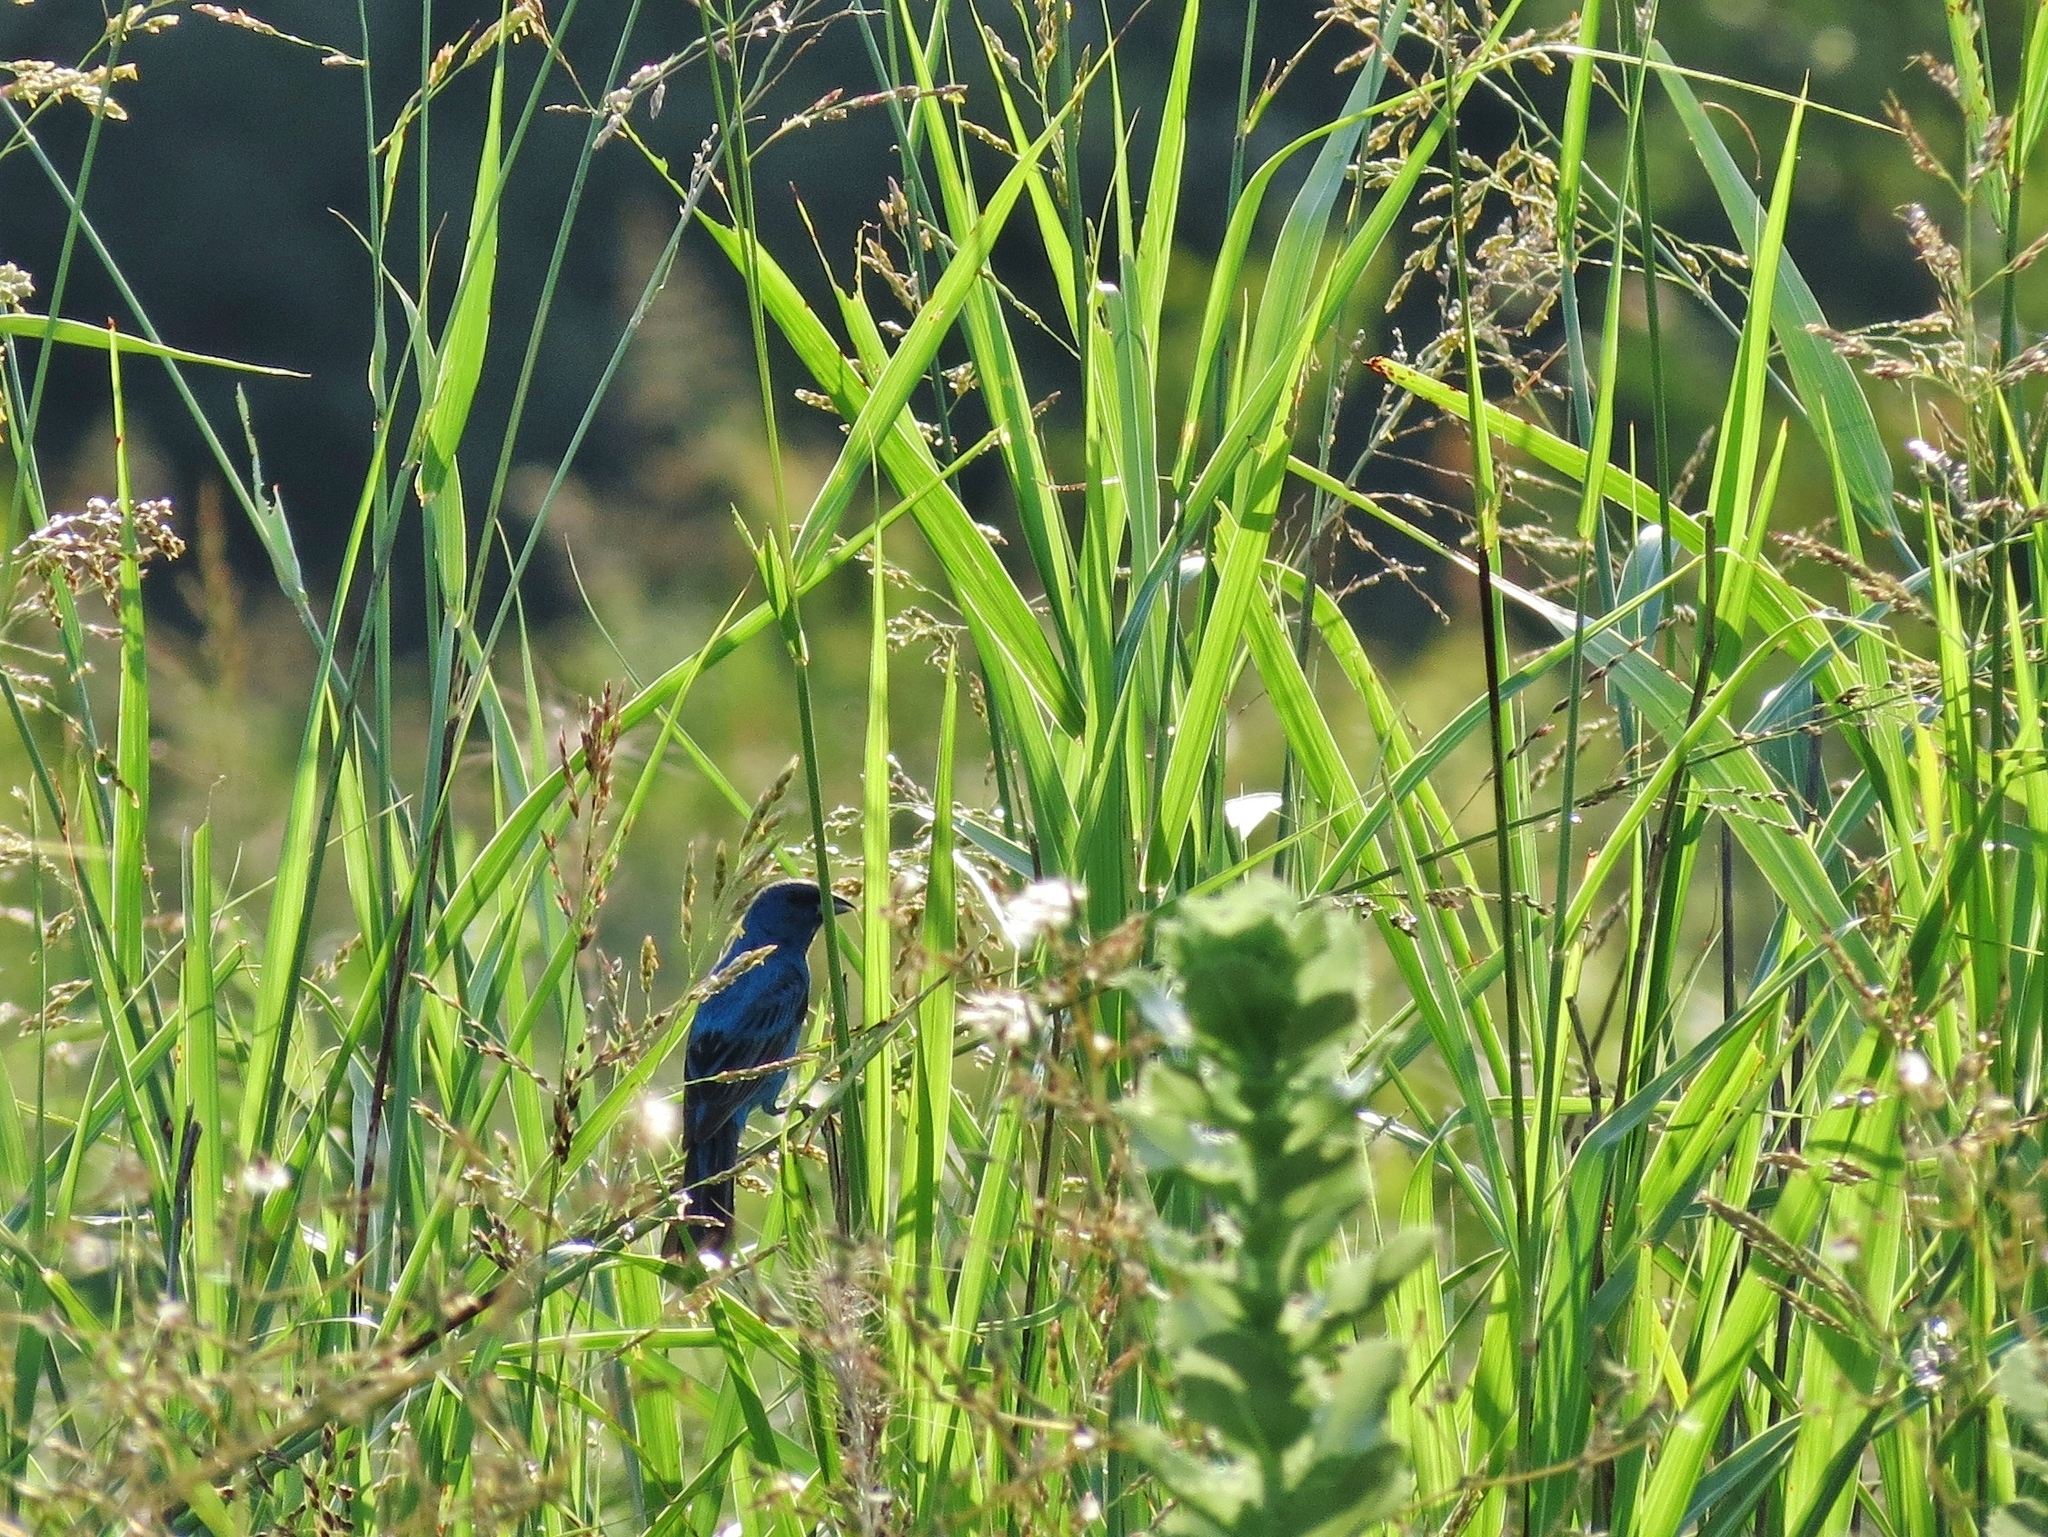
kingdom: Animalia
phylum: Chordata
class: Aves
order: Passeriformes
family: Cardinalidae
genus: Passerina
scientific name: Passerina cyanea
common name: Indigo bunting
